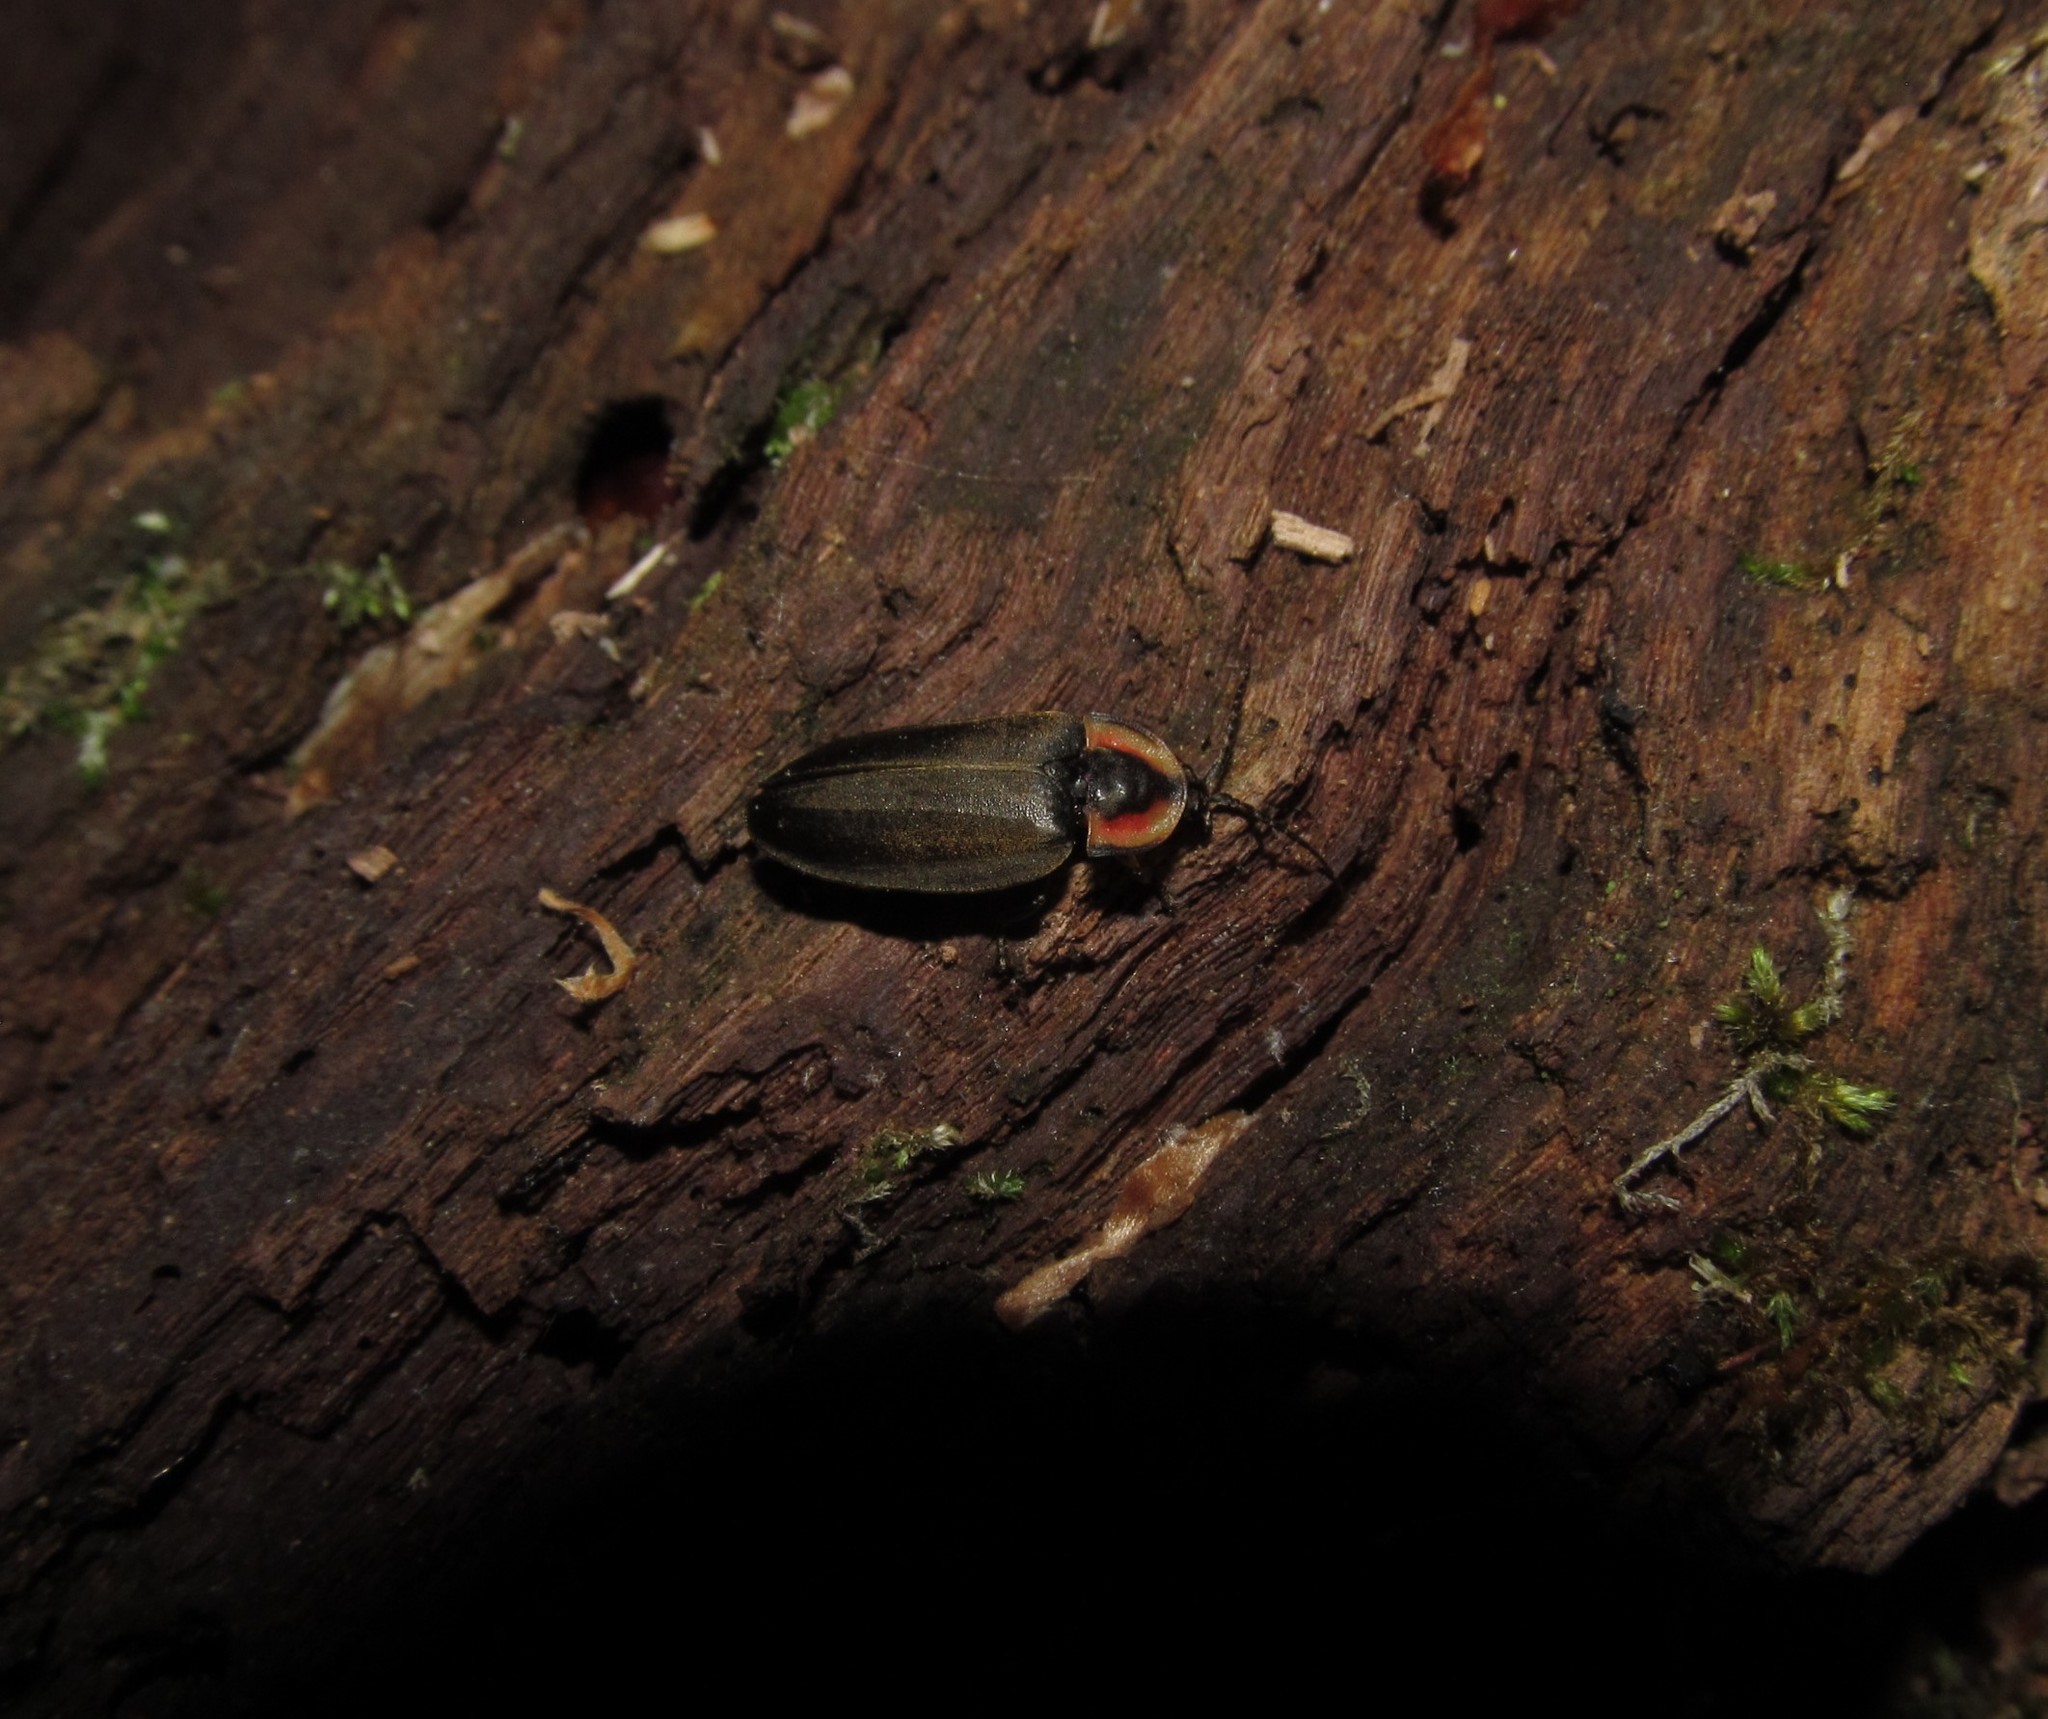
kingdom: Animalia
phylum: Arthropoda
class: Insecta
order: Coleoptera
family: Lampyridae
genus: Photinus
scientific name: Photinus corrusca
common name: Winter firefly
